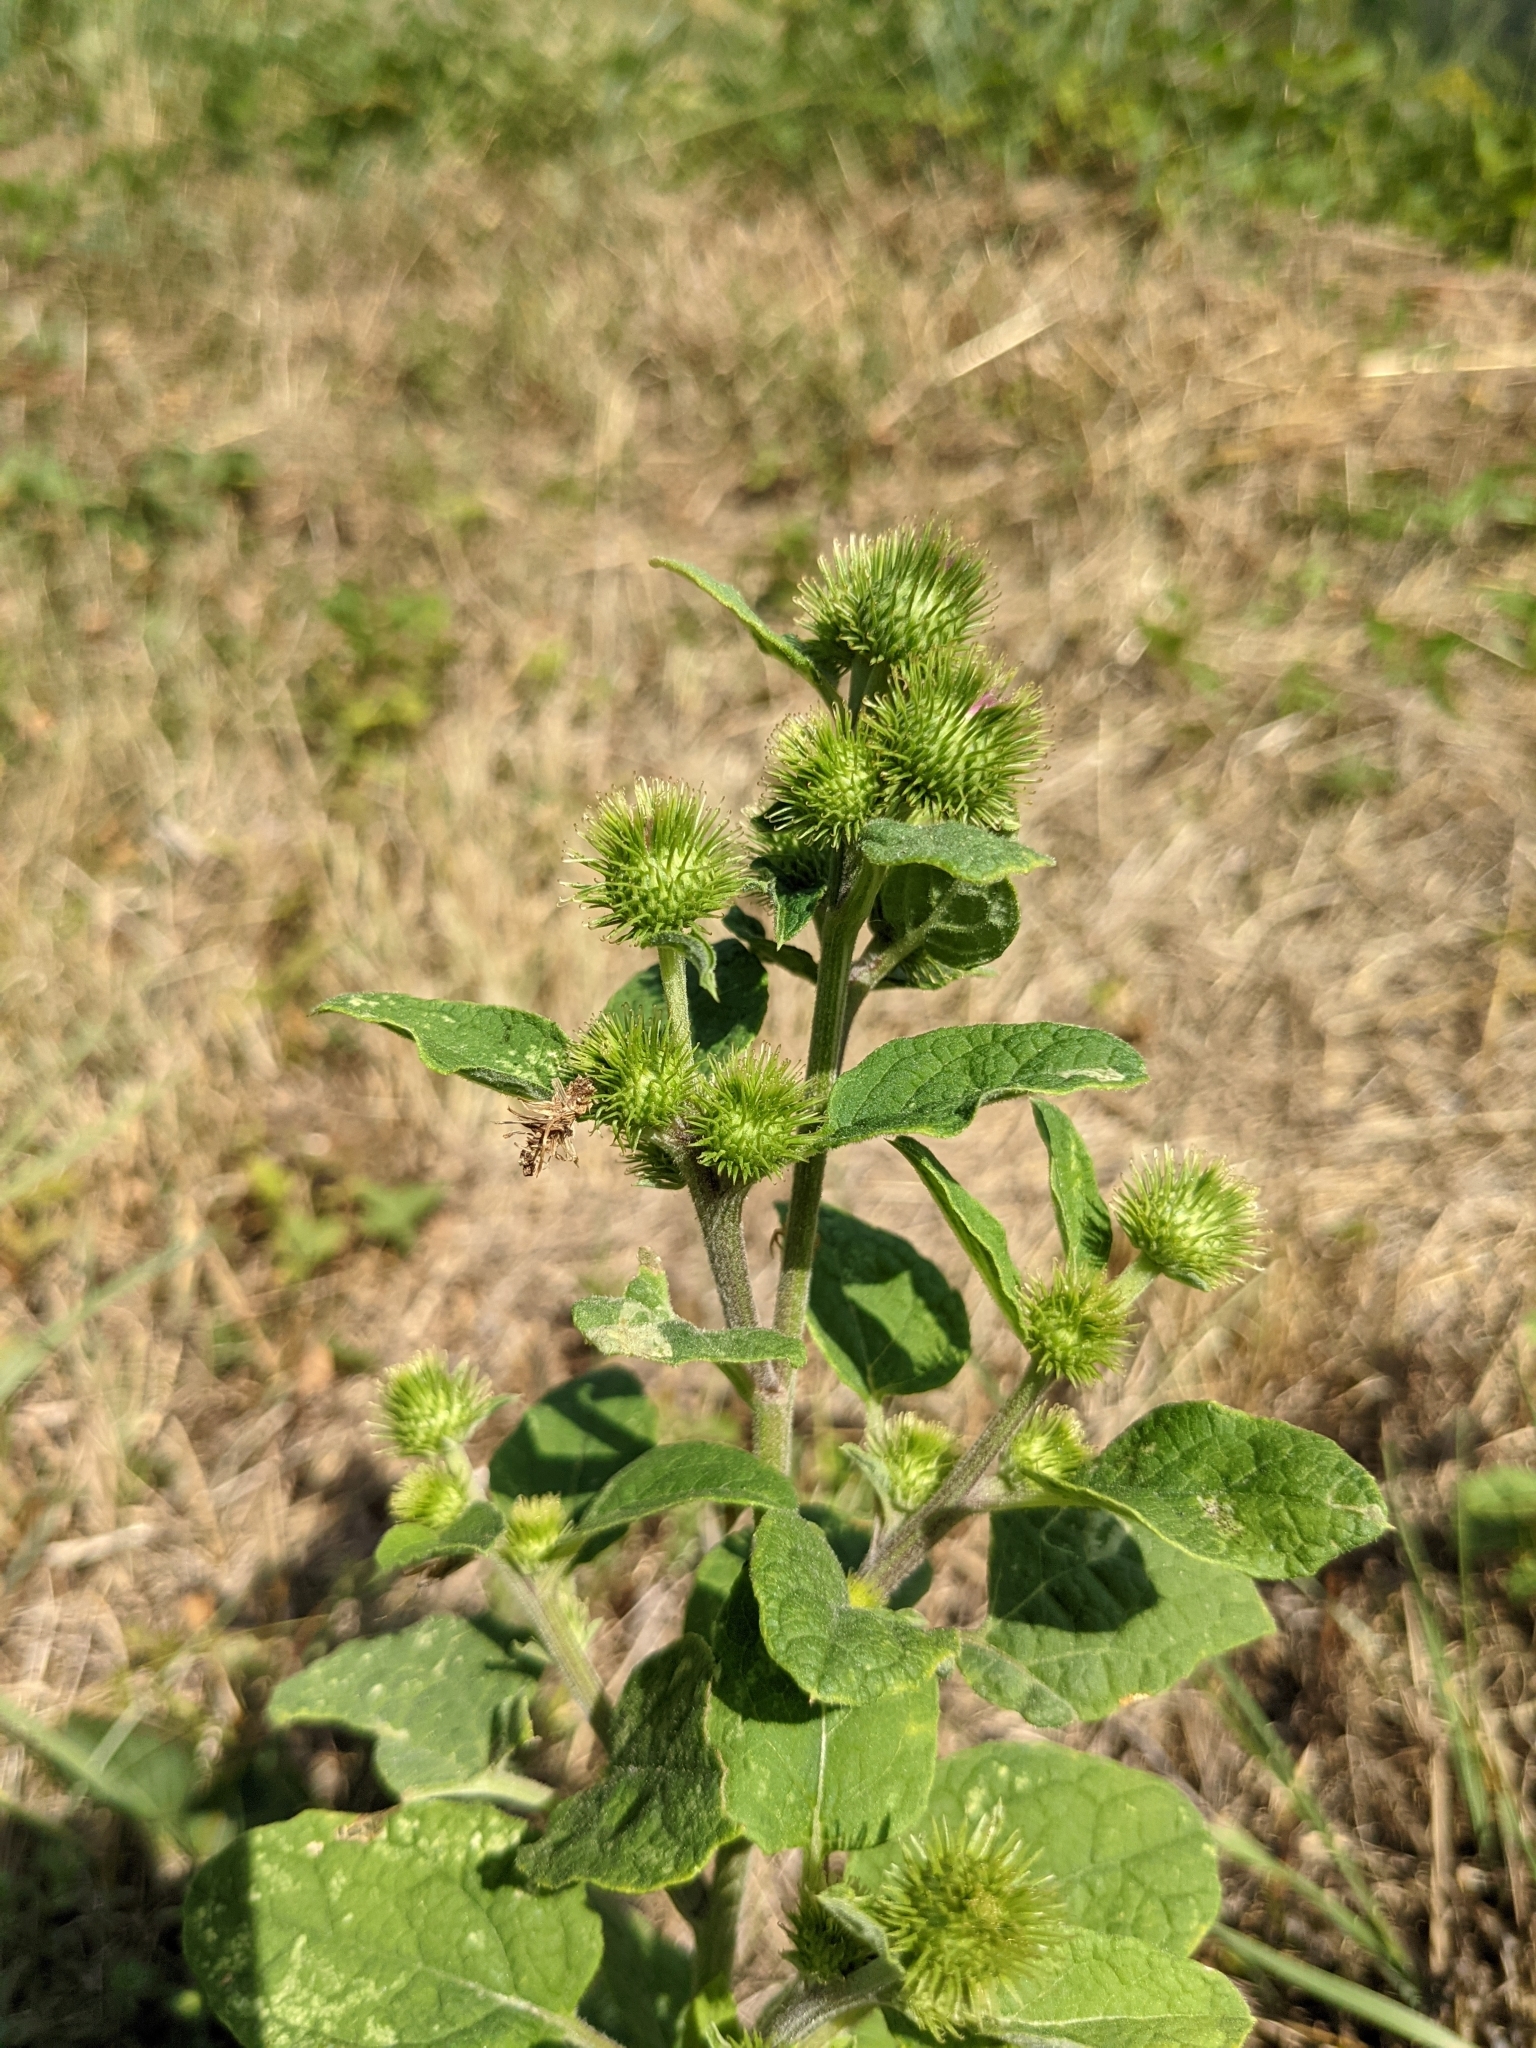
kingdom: Plantae
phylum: Tracheophyta
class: Magnoliopsida
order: Asterales
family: Asteraceae
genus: Arctium
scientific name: Arctium minus
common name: Lesser burdock
